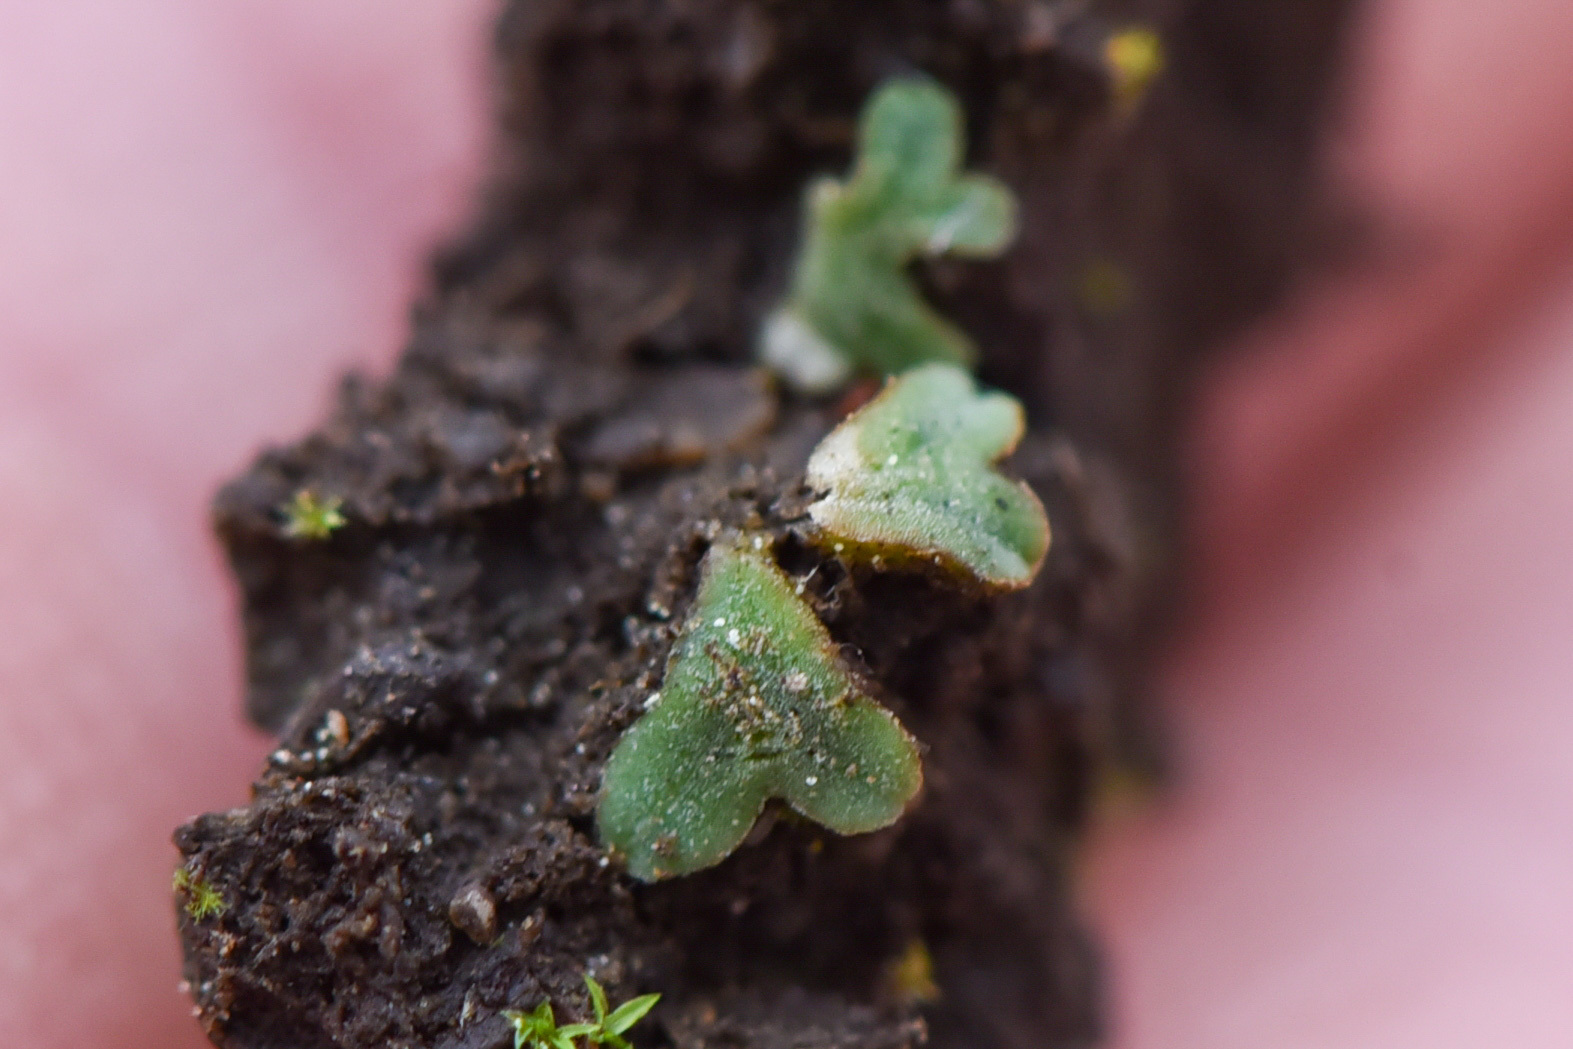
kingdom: Plantae
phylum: Marchantiophyta
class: Marchantiopsida
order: Marchantiales
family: Ricciaceae
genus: Riccia
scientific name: Riccia sorocarpa
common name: Common crystalwort
